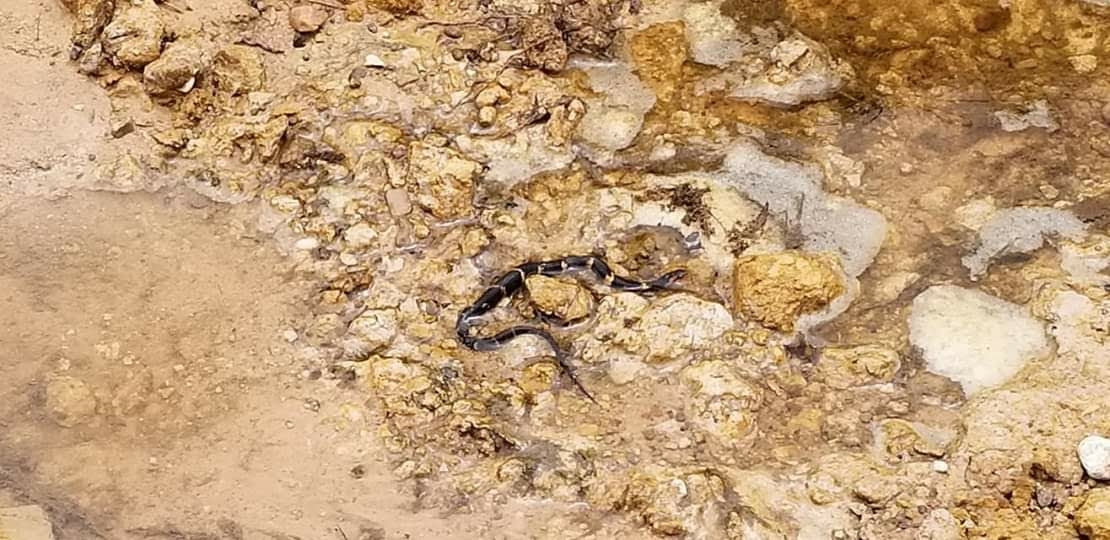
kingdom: Animalia
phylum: Chordata
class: Squamata
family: Colubridae
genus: Nerodia
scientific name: Nerodia fasciata
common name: Southern water snake
